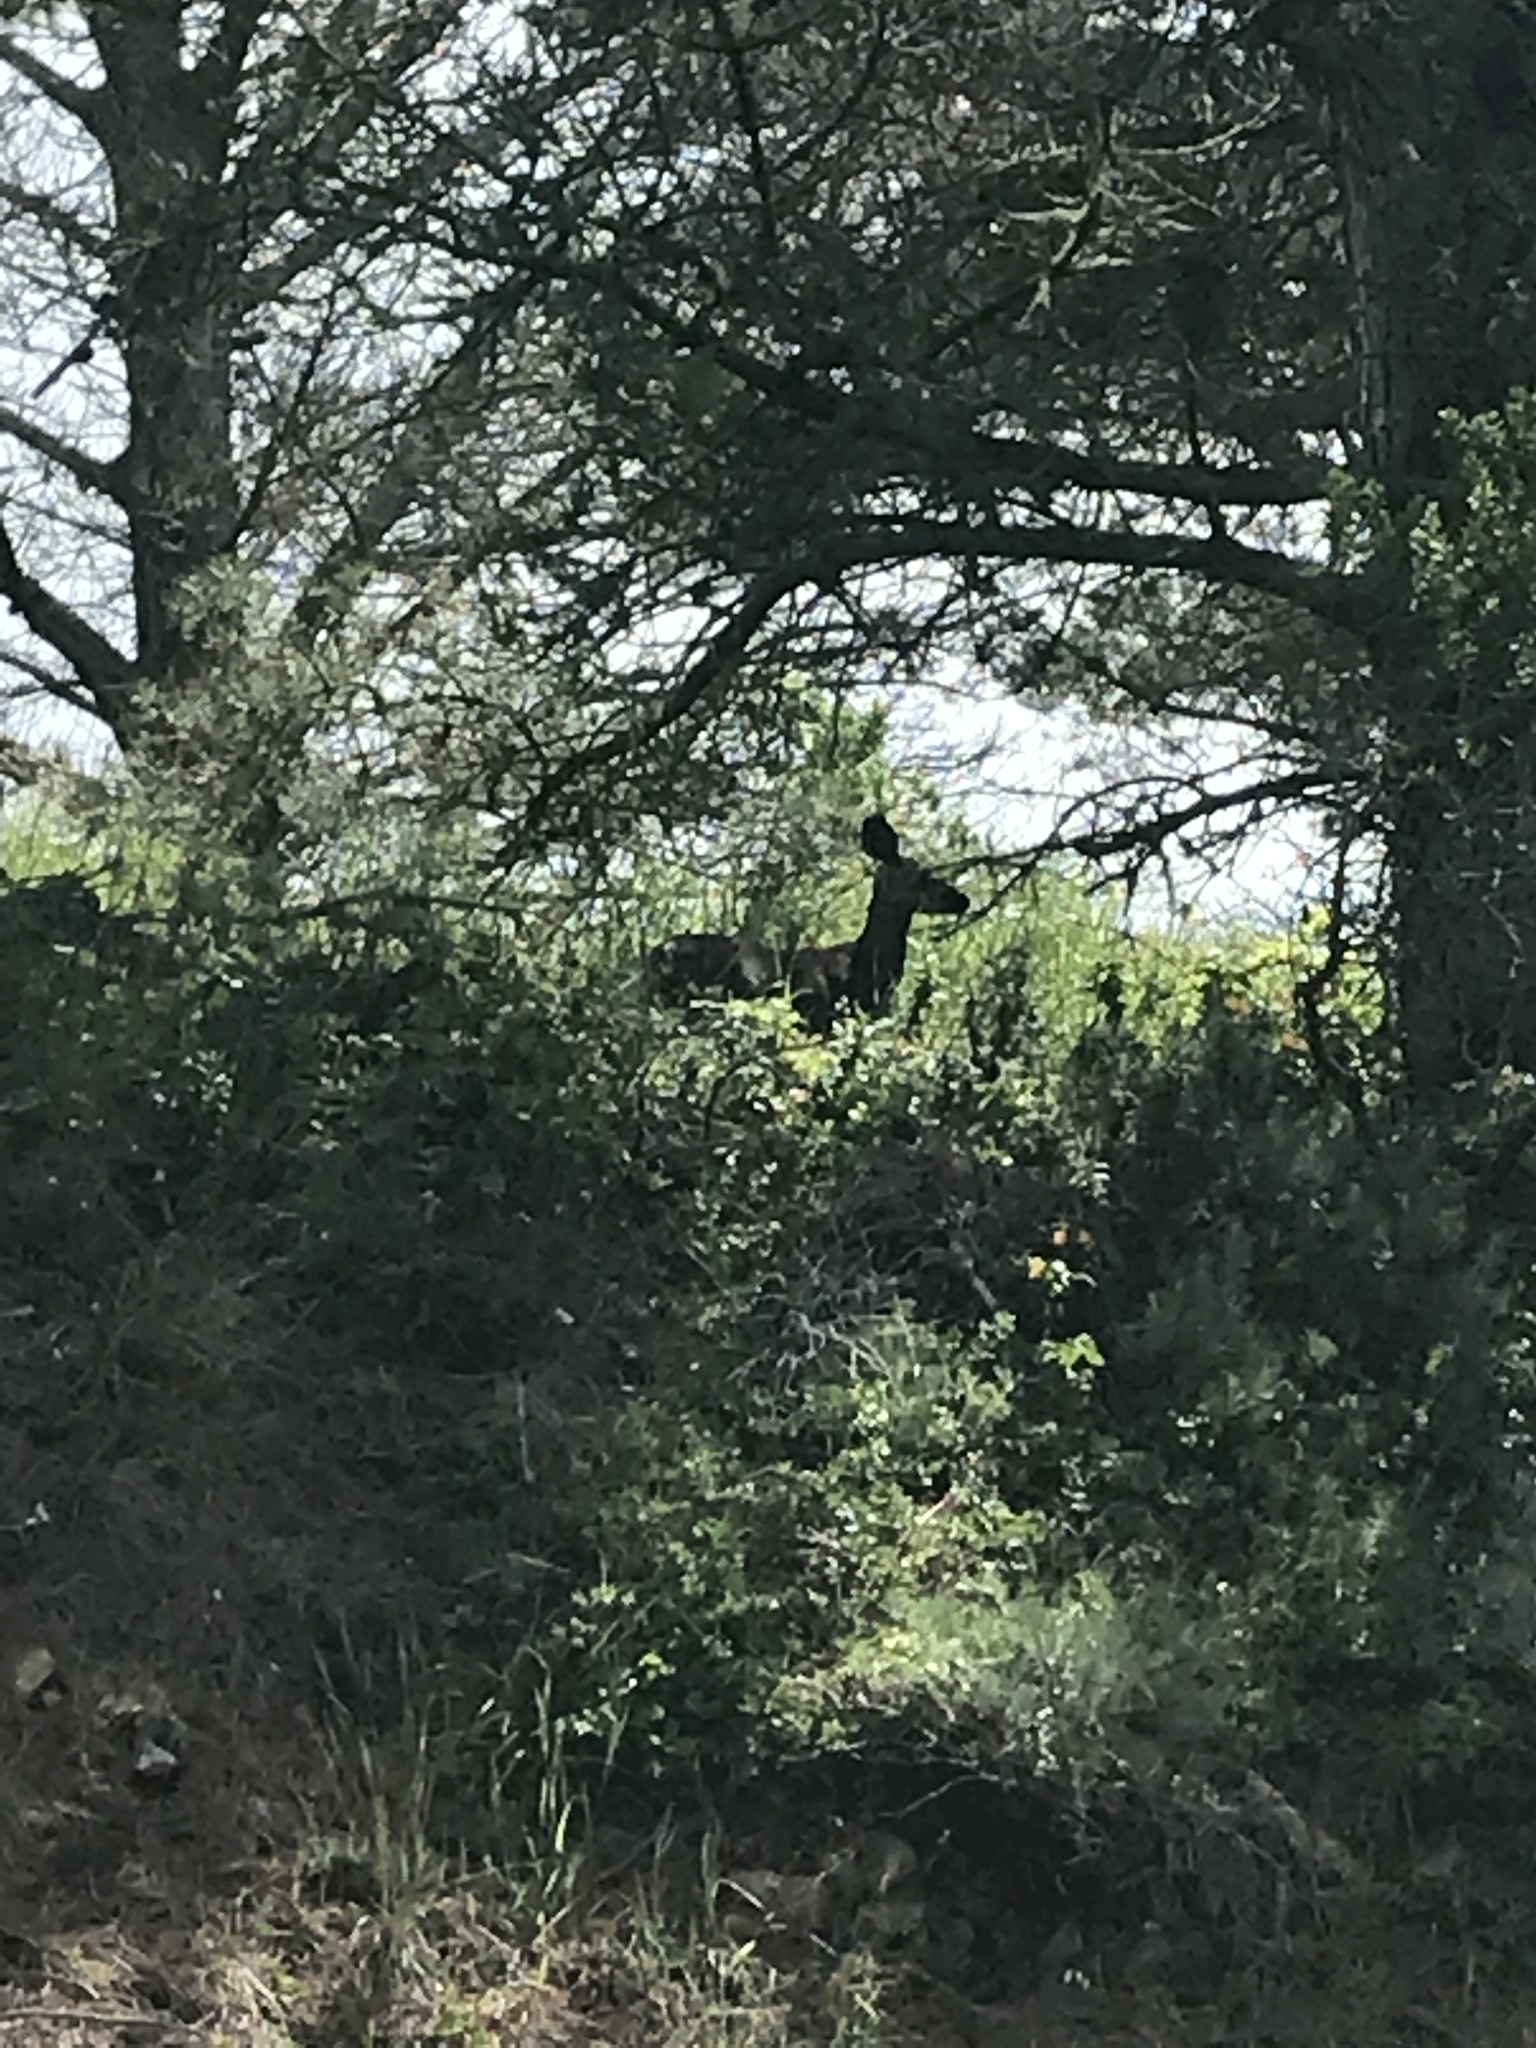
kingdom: Animalia
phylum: Chordata
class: Mammalia
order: Artiodactyla
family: Cervidae
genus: Odocoileus
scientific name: Odocoileus hemionus
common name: Mule deer
